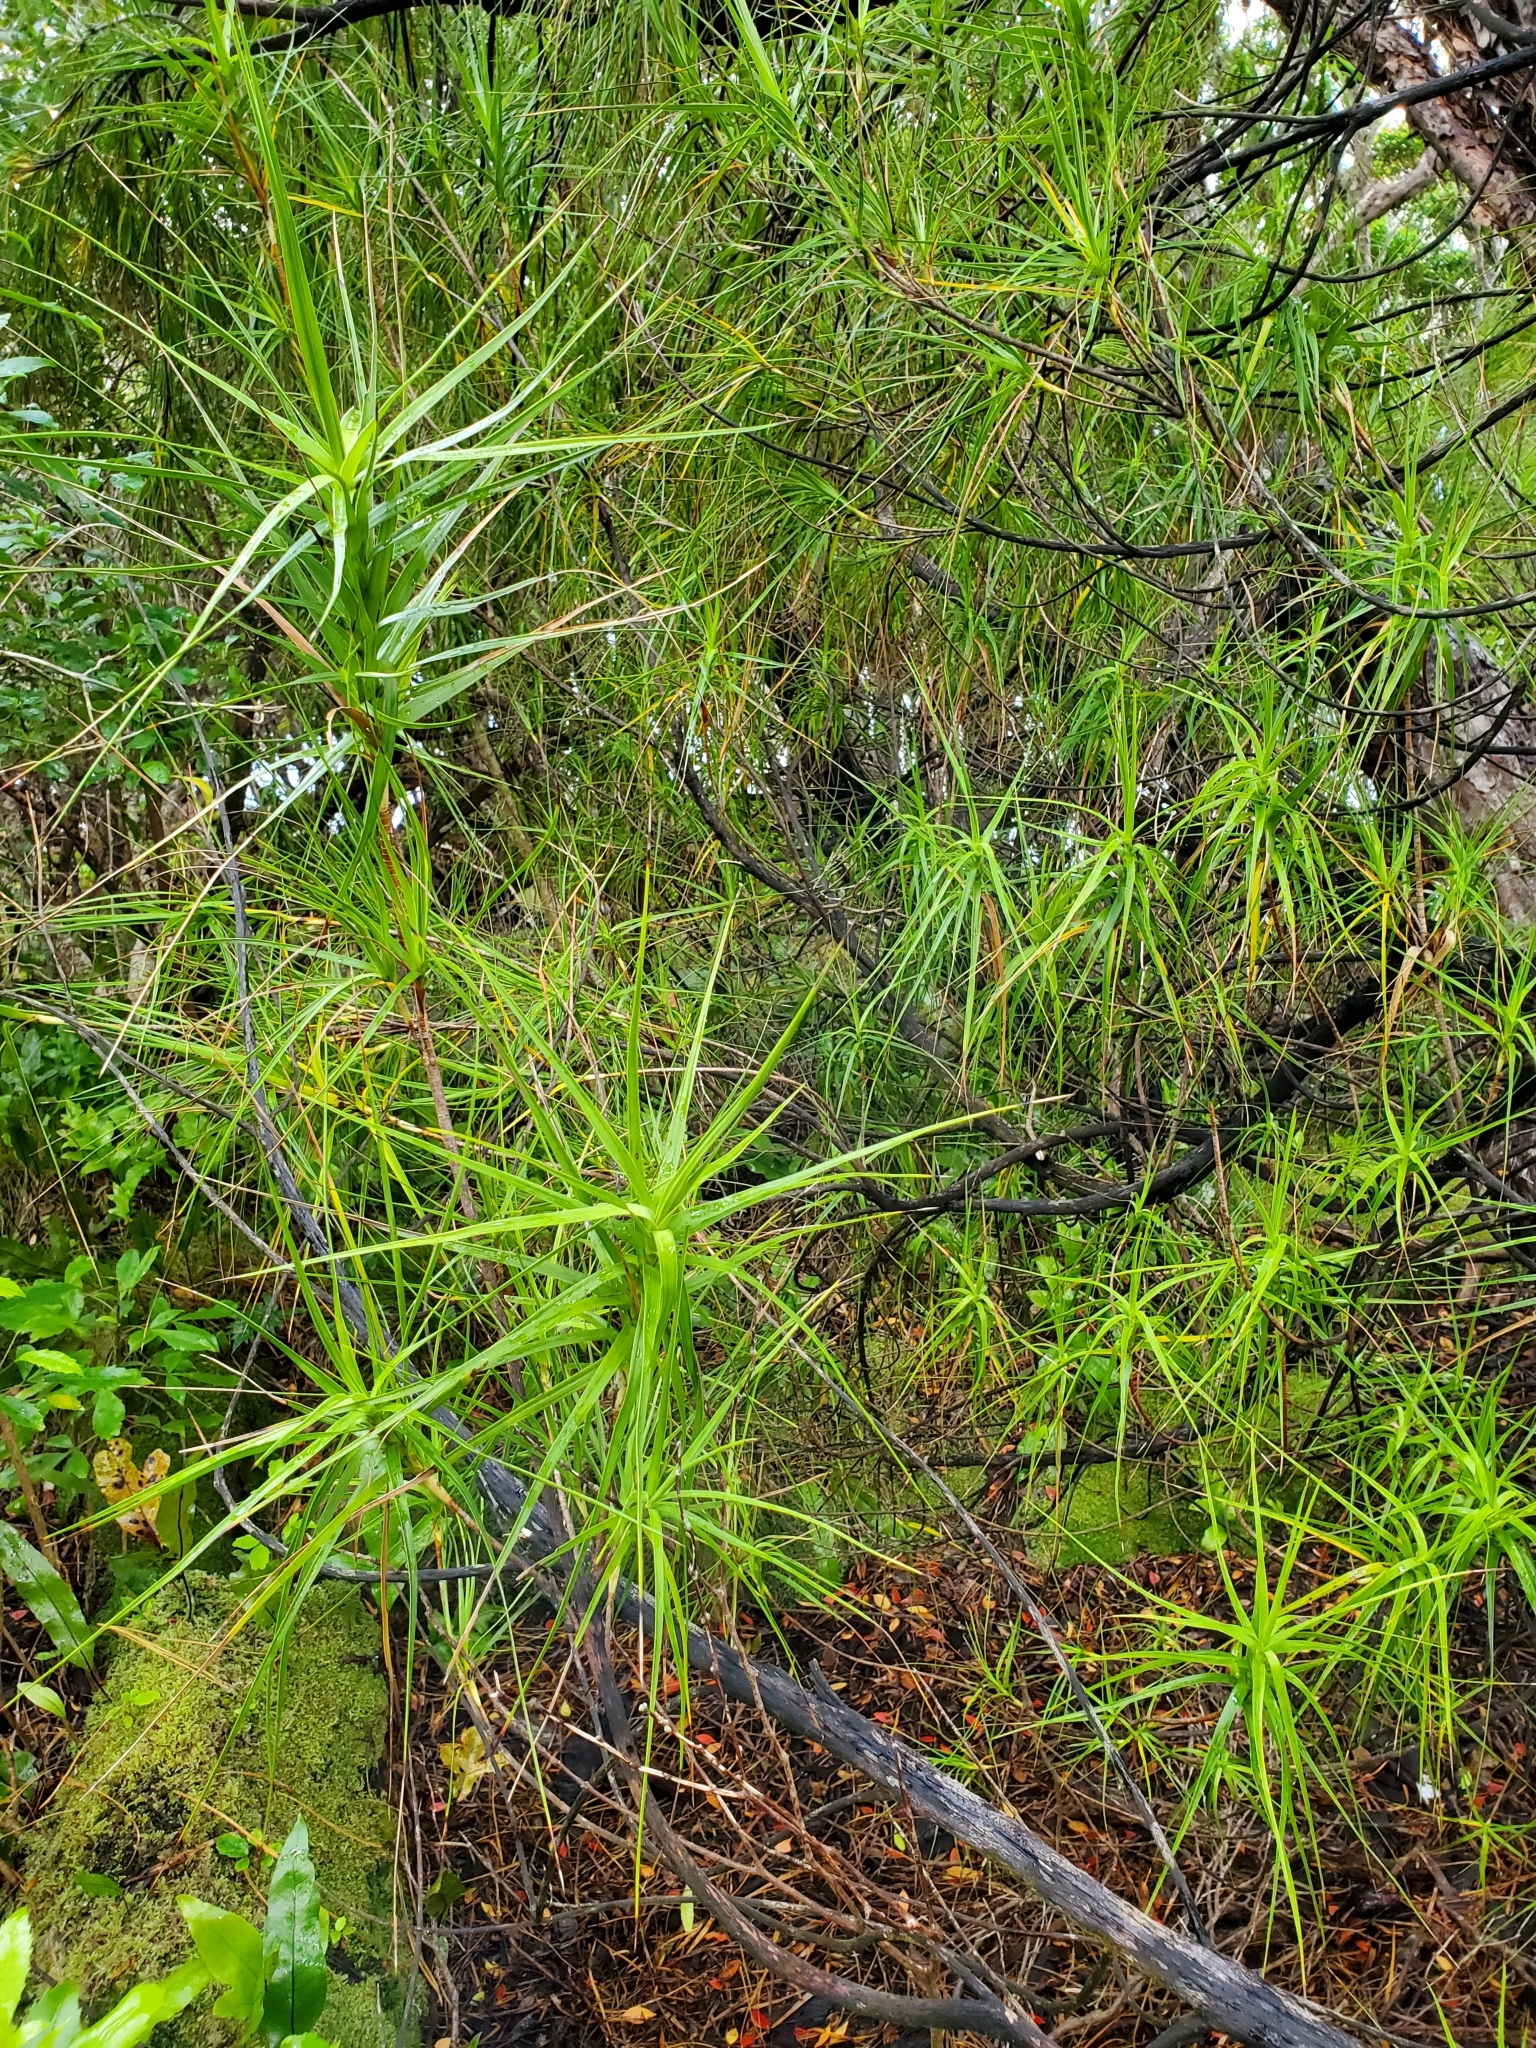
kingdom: Plantae
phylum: Tracheophyta
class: Magnoliopsida
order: Ericales
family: Ericaceae
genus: Dracophyllum
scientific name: Dracophyllum longifolium
